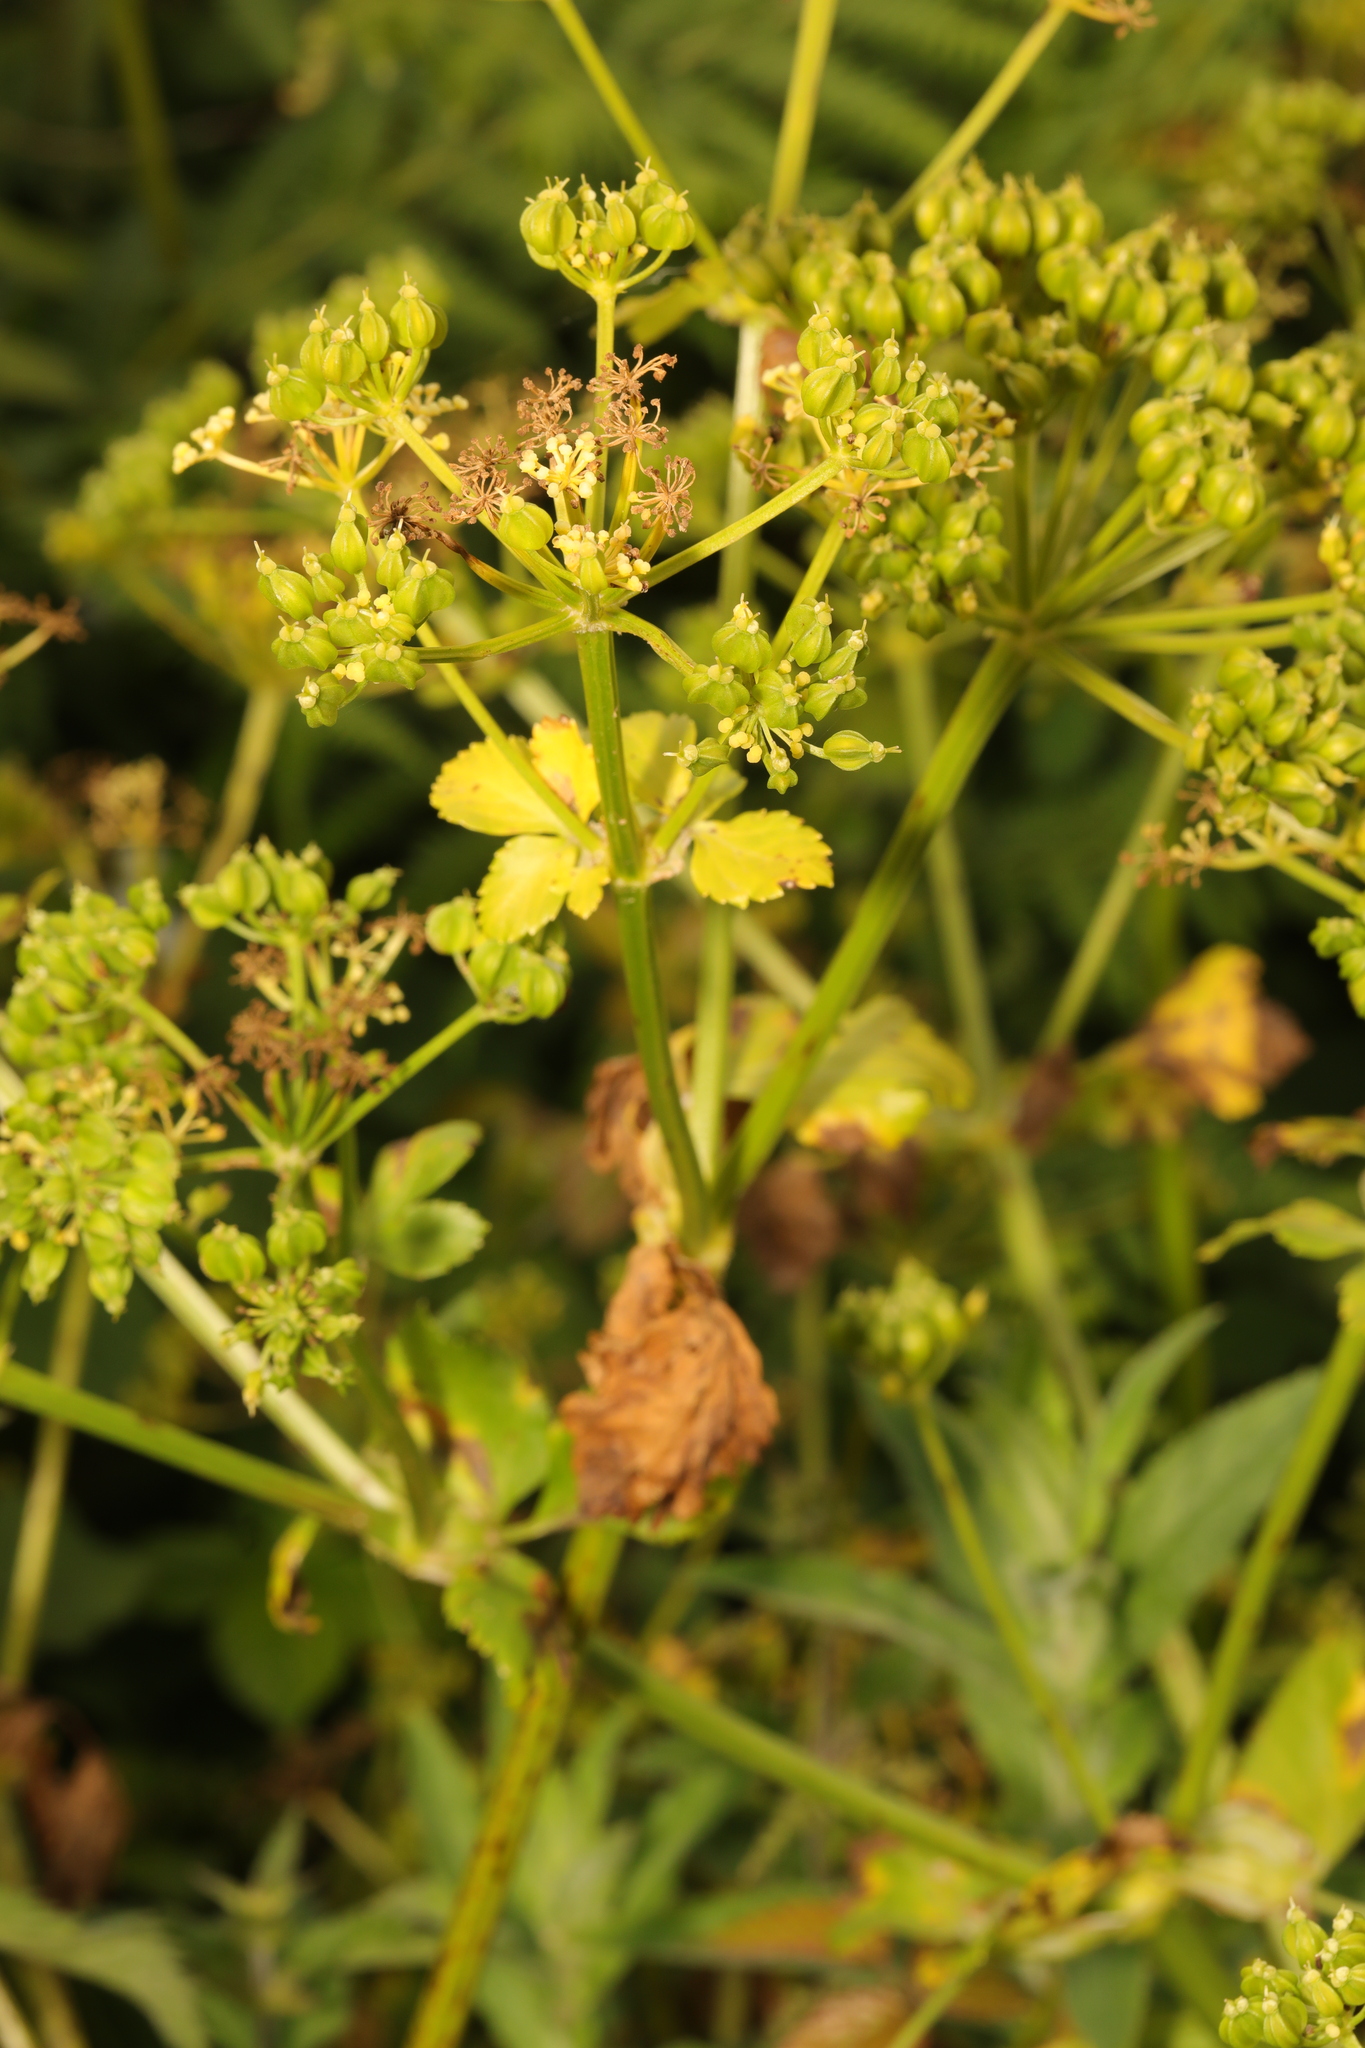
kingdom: Plantae
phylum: Tracheophyta
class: Magnoliopsida
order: Apiales
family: Apiaceae
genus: Smyrnium
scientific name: Smyrnium olusatrum
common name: Alexanders
